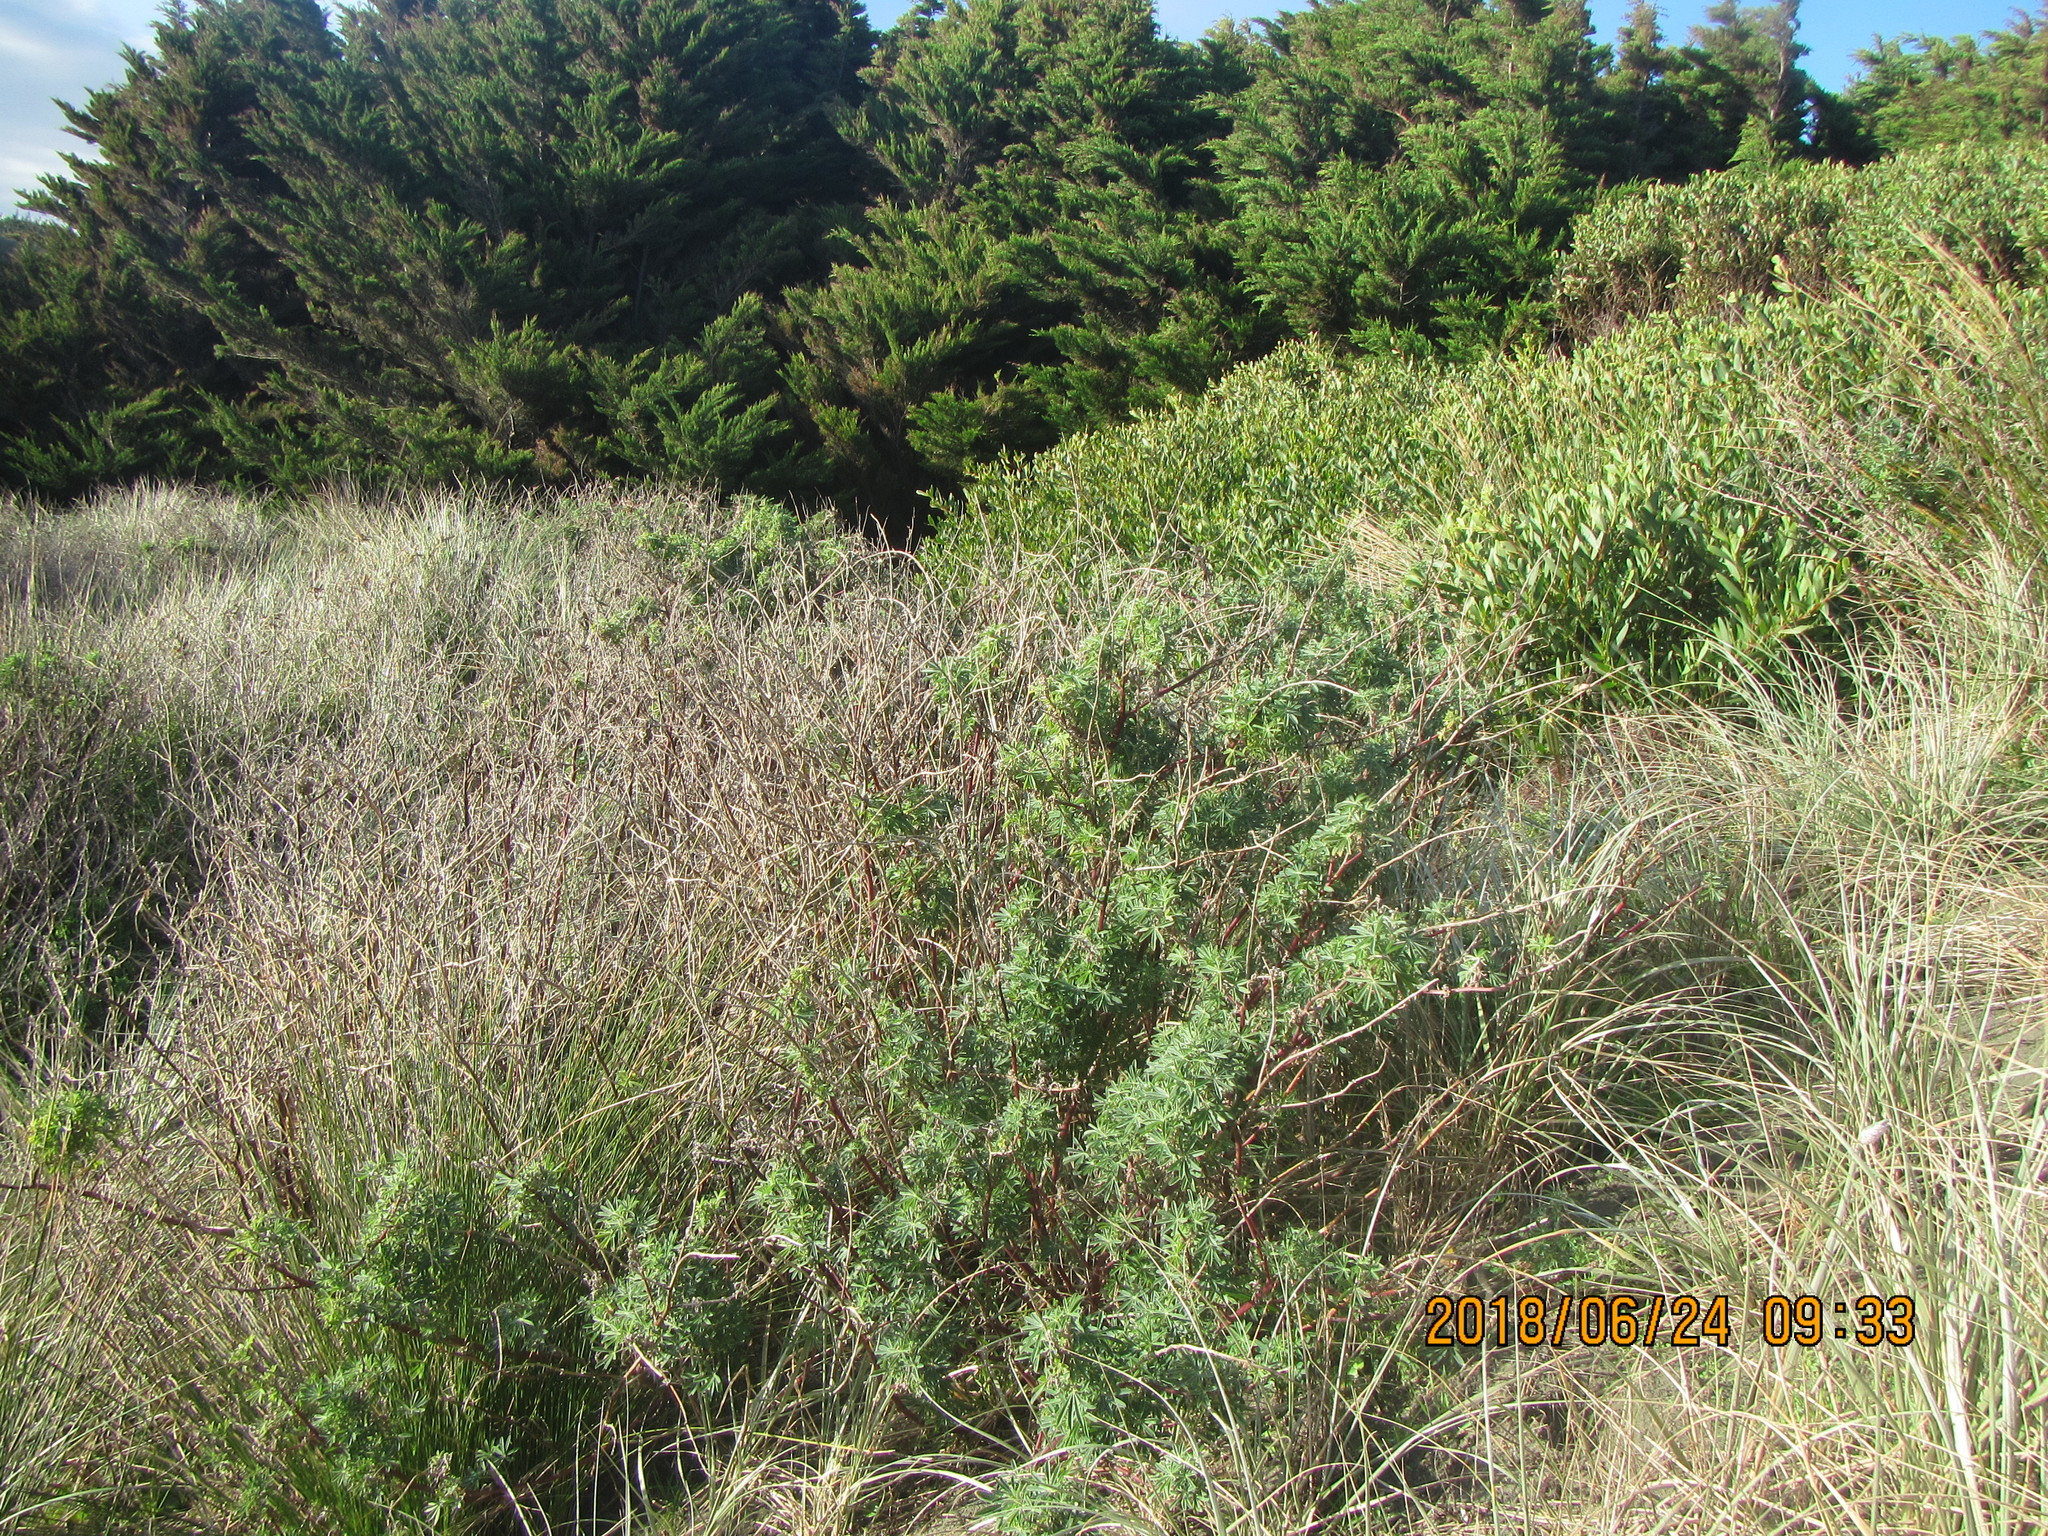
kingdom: Plantae
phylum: Tracheophyta
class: Magnoliopsida
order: Fabales
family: Fabaceae
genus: Lupinus
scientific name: Lupinus arboreus
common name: Yellow bush lupine
